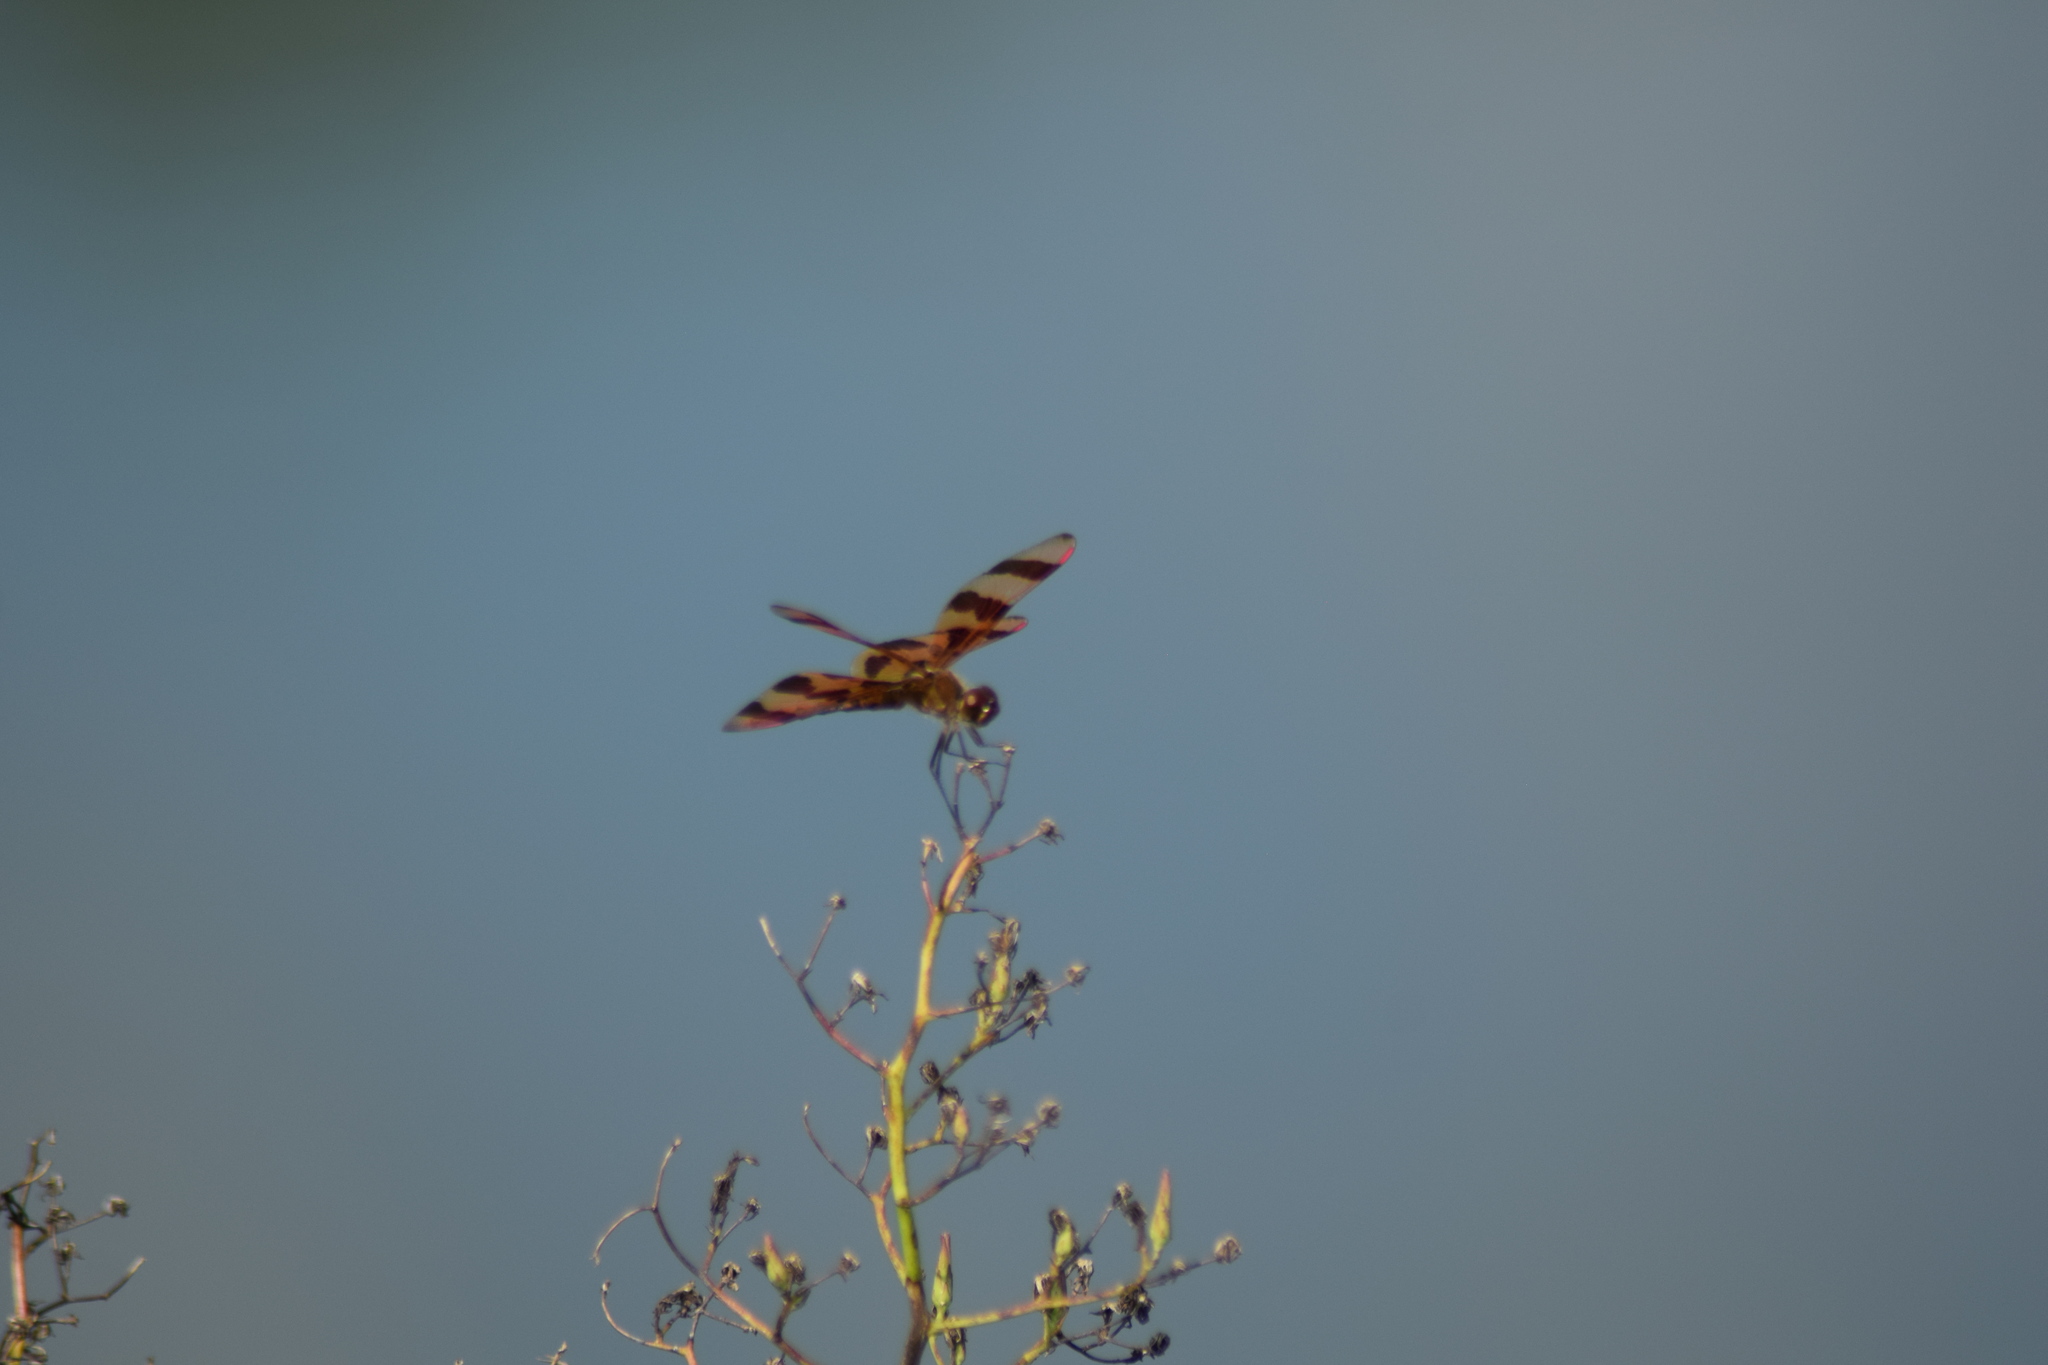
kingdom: Animalia
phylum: Arthropoda
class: Insecta
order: Odonata
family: Libellulidae
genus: Celithemis
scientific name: Celithemis eponina
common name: Halloween pennant
